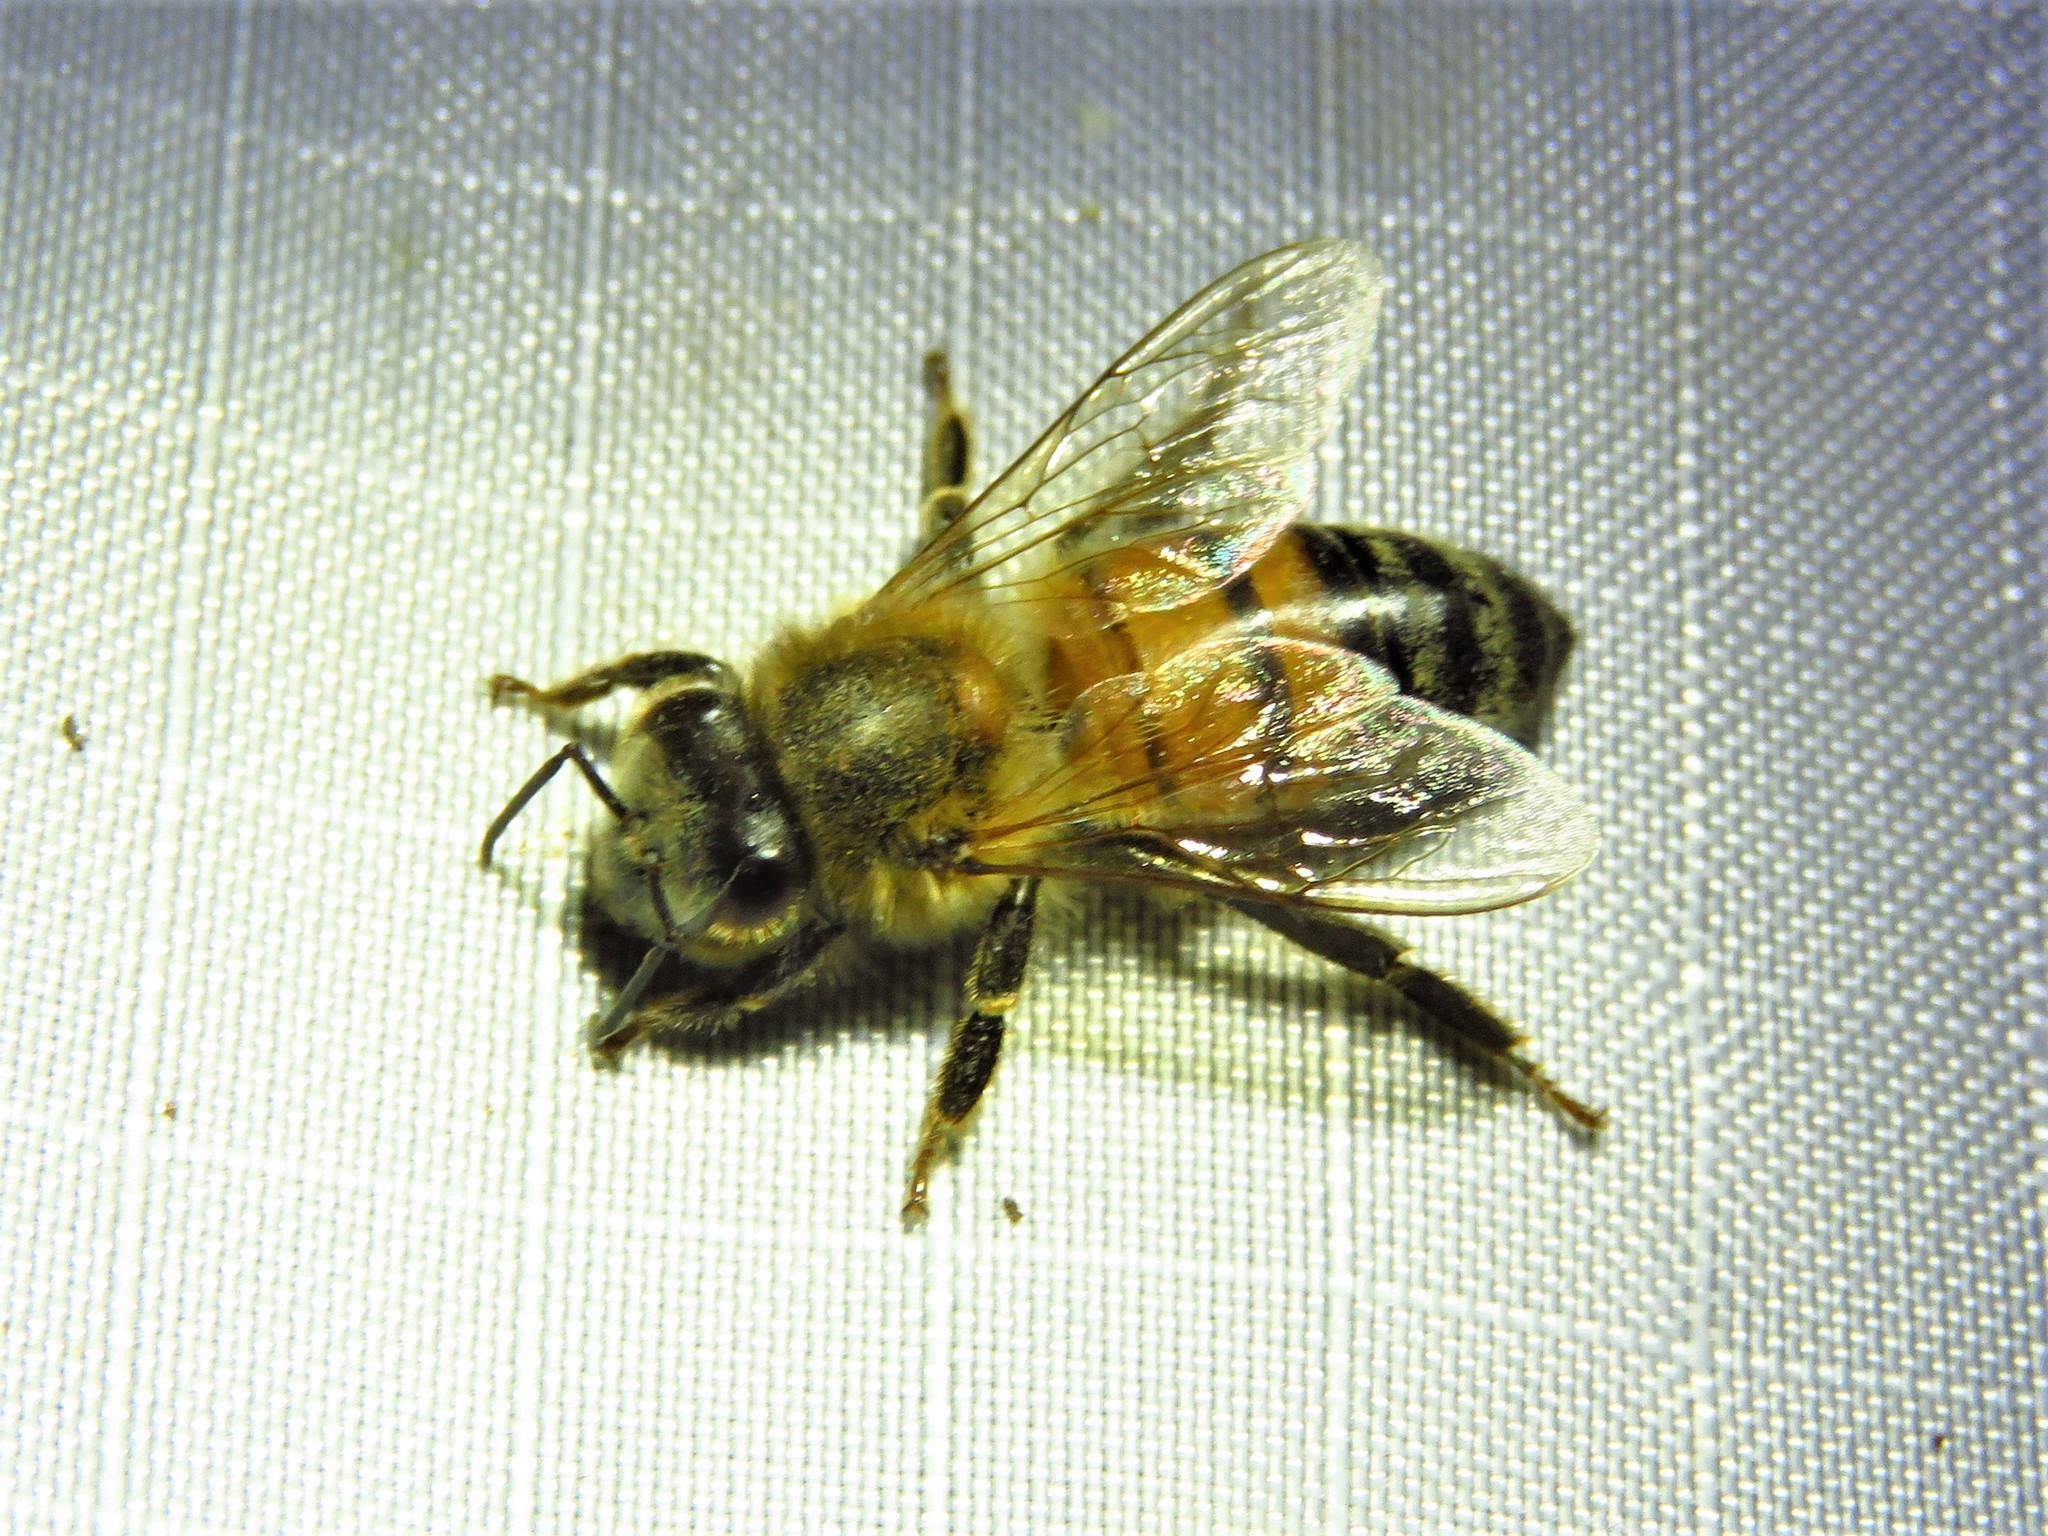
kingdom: Animalia
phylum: Arthropoda
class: Insecta
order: Hymenoptera
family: Apidae
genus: Apis
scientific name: Apis mellifera
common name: Honey bee
